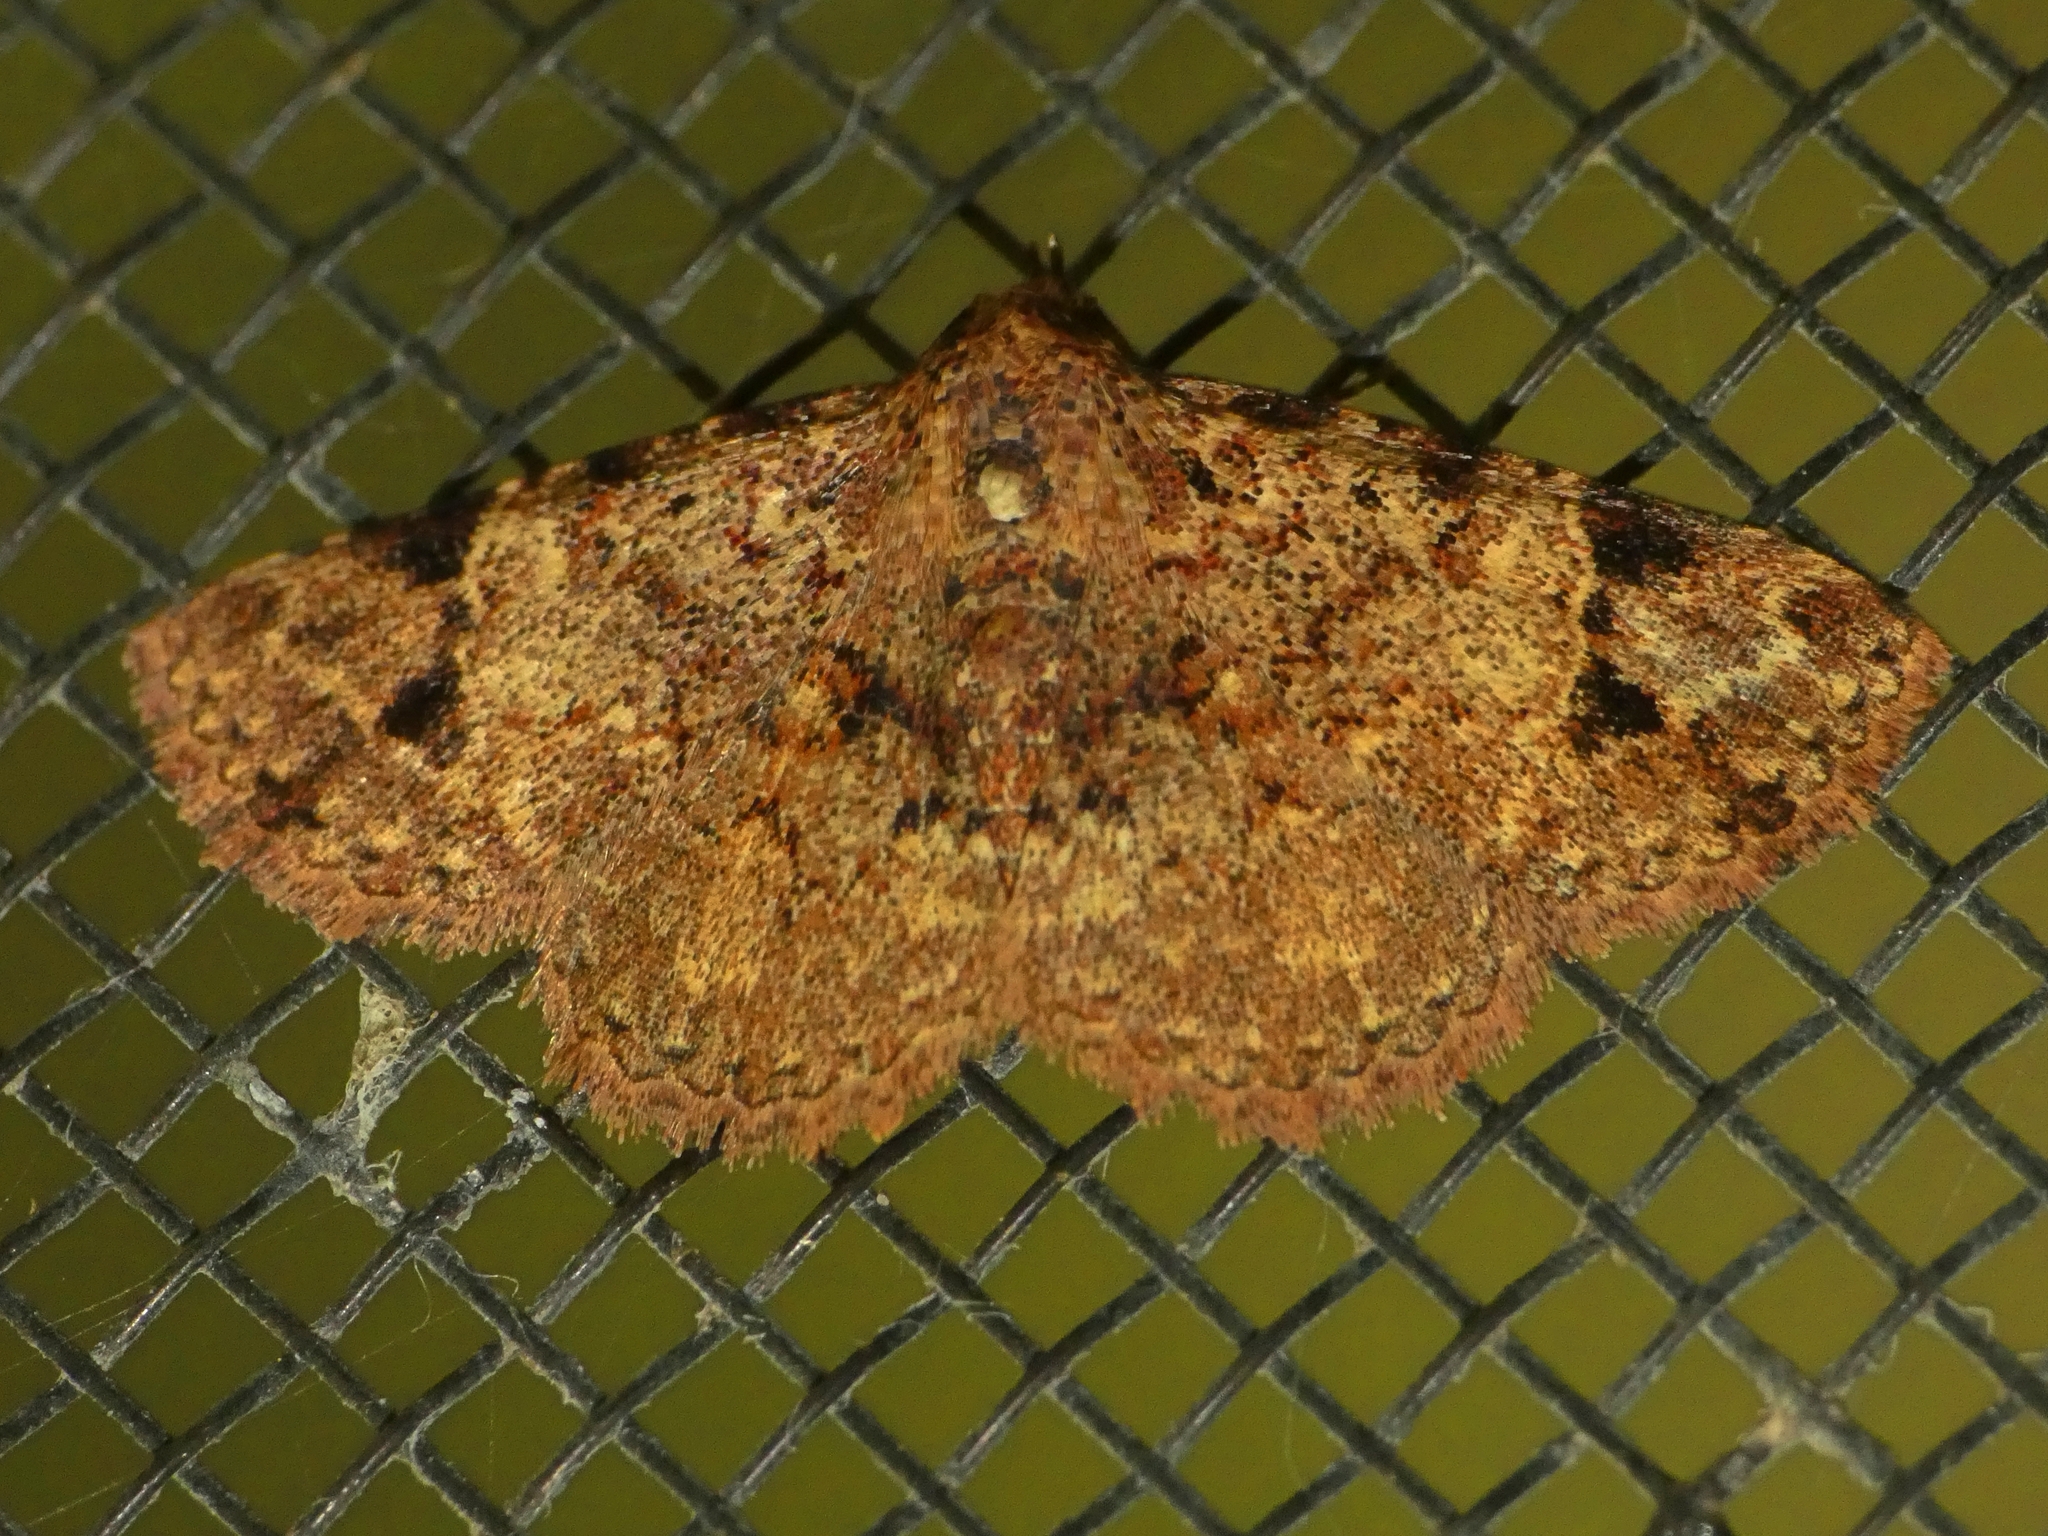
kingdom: Animalia
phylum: Arthropoda
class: Insecta
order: Lepidoptera
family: Erebidae
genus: Panilla
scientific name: Panilla spilotis
